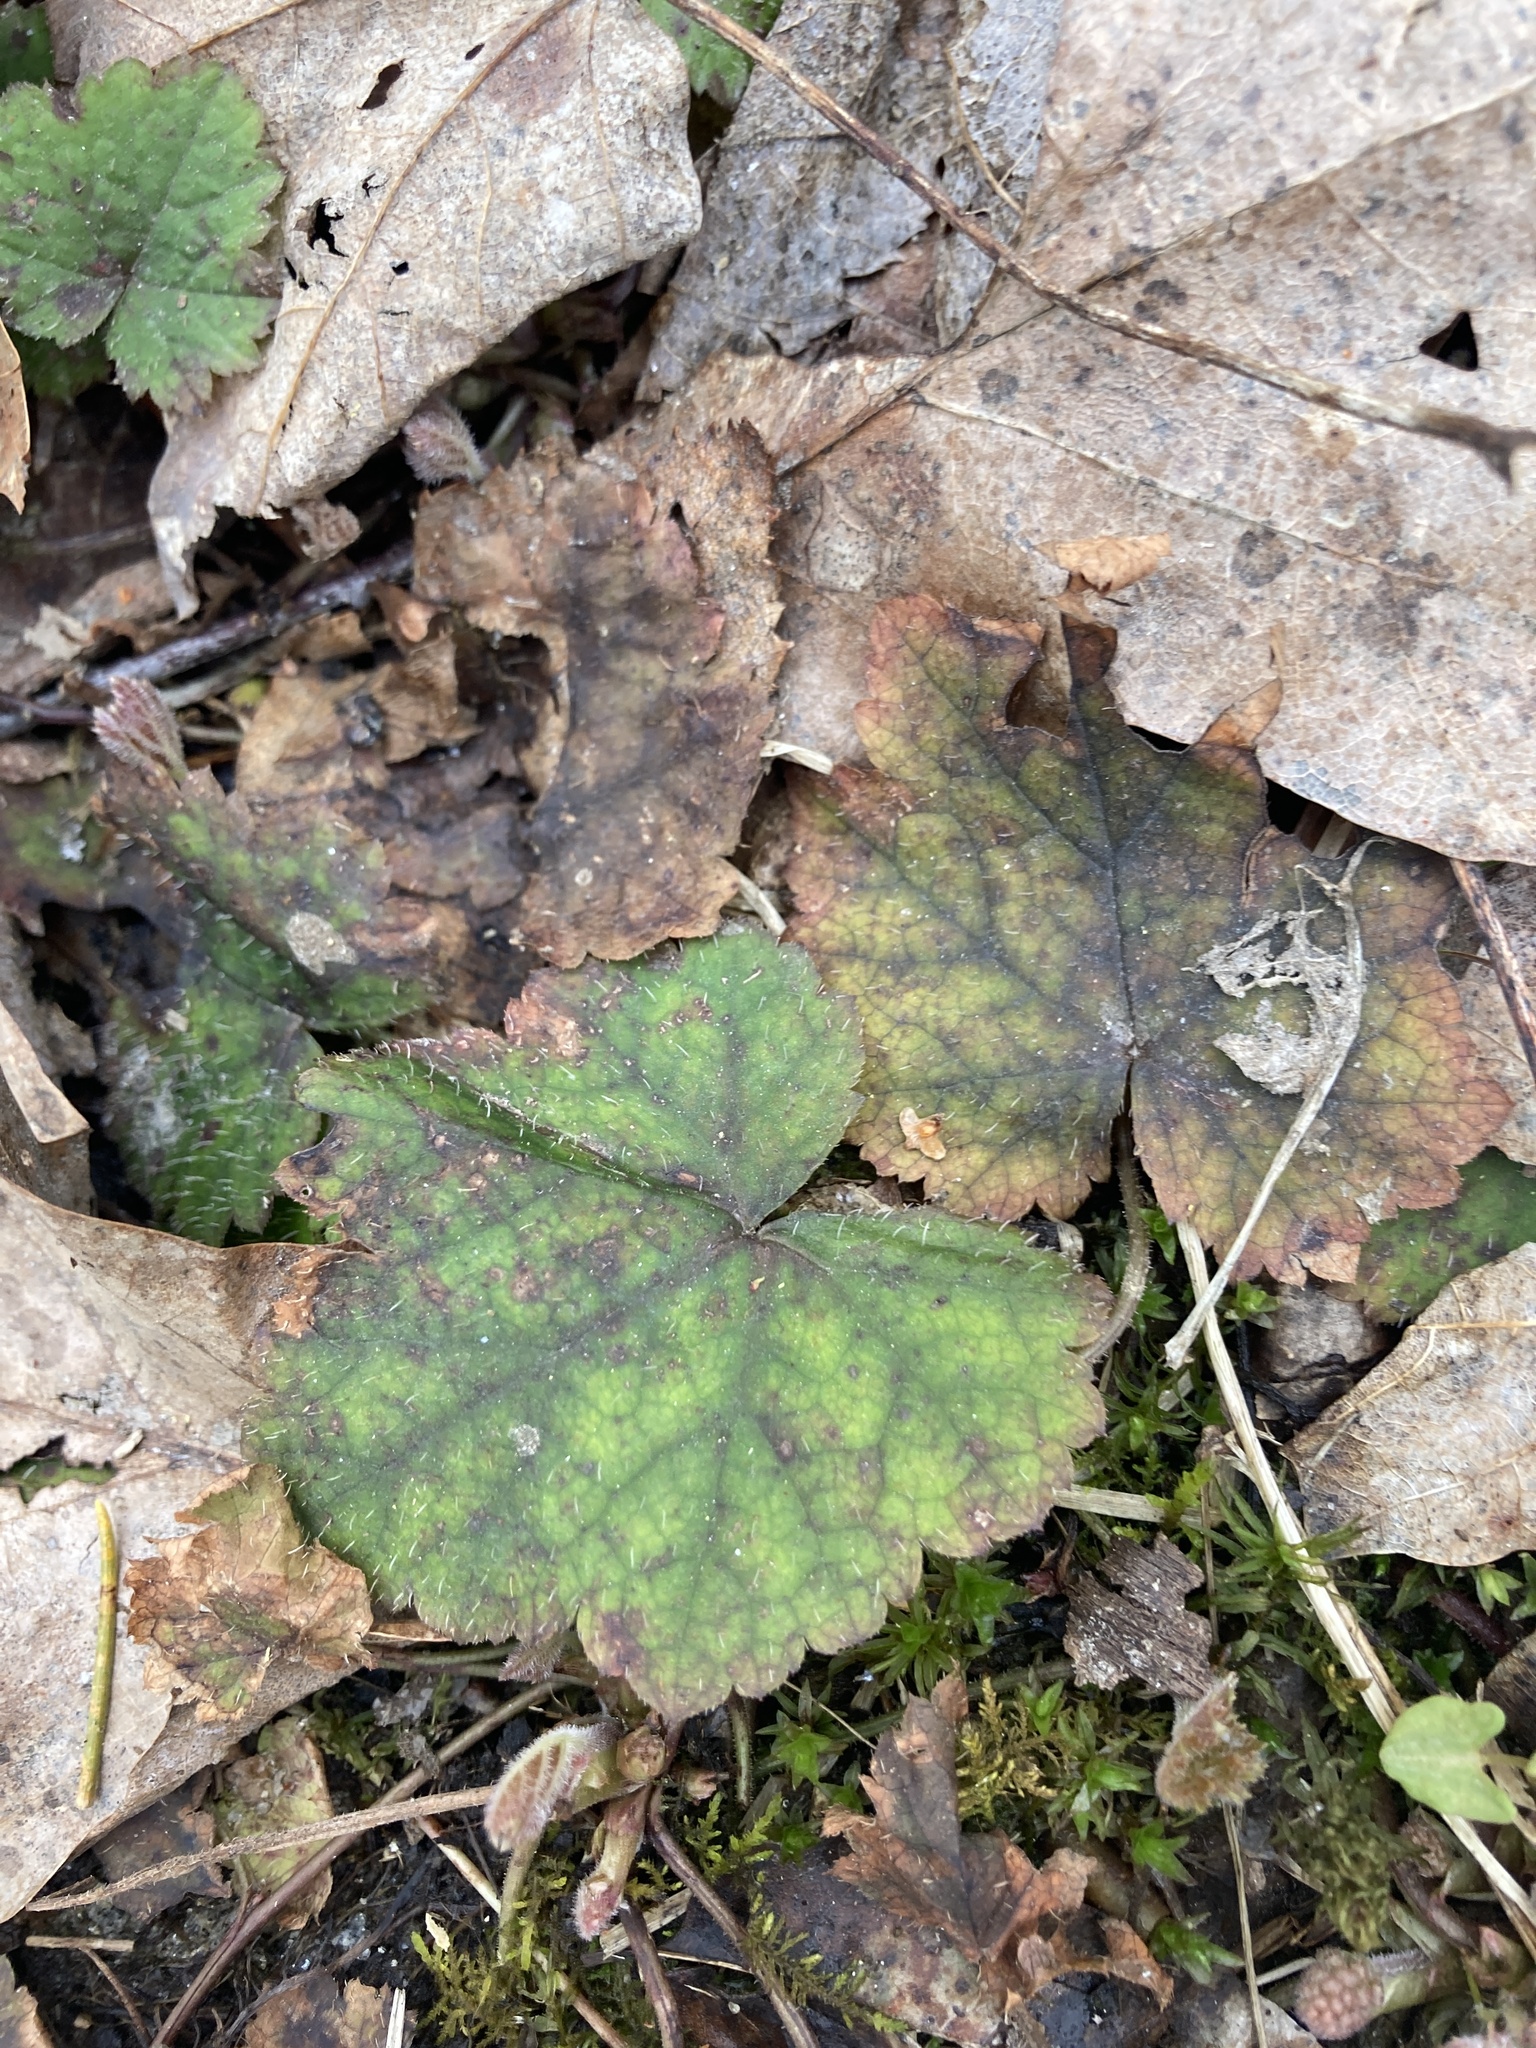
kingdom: Plantae
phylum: Tracheophyta
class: Magnoliopsida
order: Saxifragales
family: Saxifragaceae
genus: Tiarella
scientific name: Tiarella stolonifera
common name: Stoloniferous foamflower
